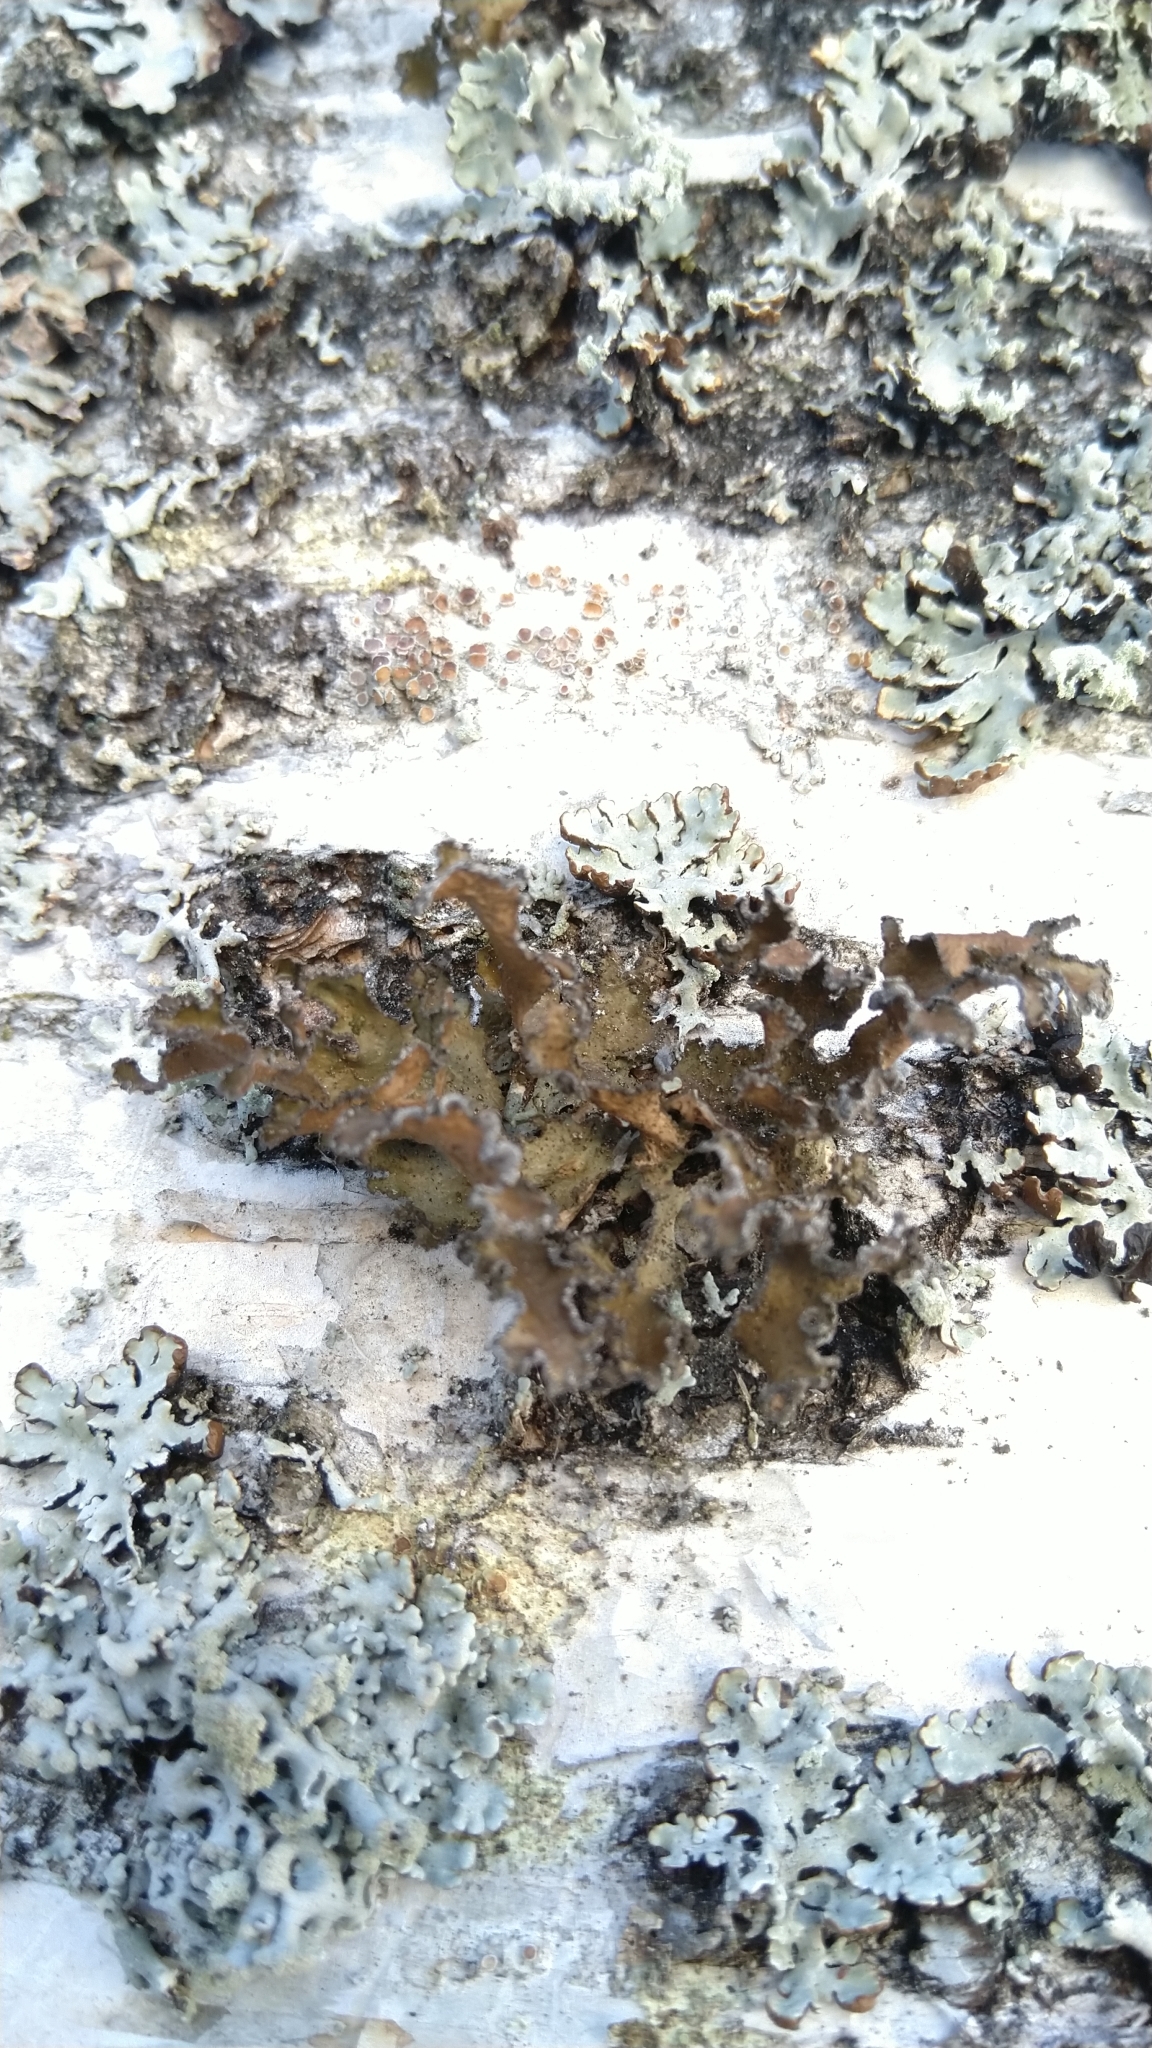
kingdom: Fungi
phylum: Ascomycota
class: Lecanoromycetes
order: Lecanorales
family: Parmeliaceae
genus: Nephromopsis
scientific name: Nephromopsis chlorophylla
